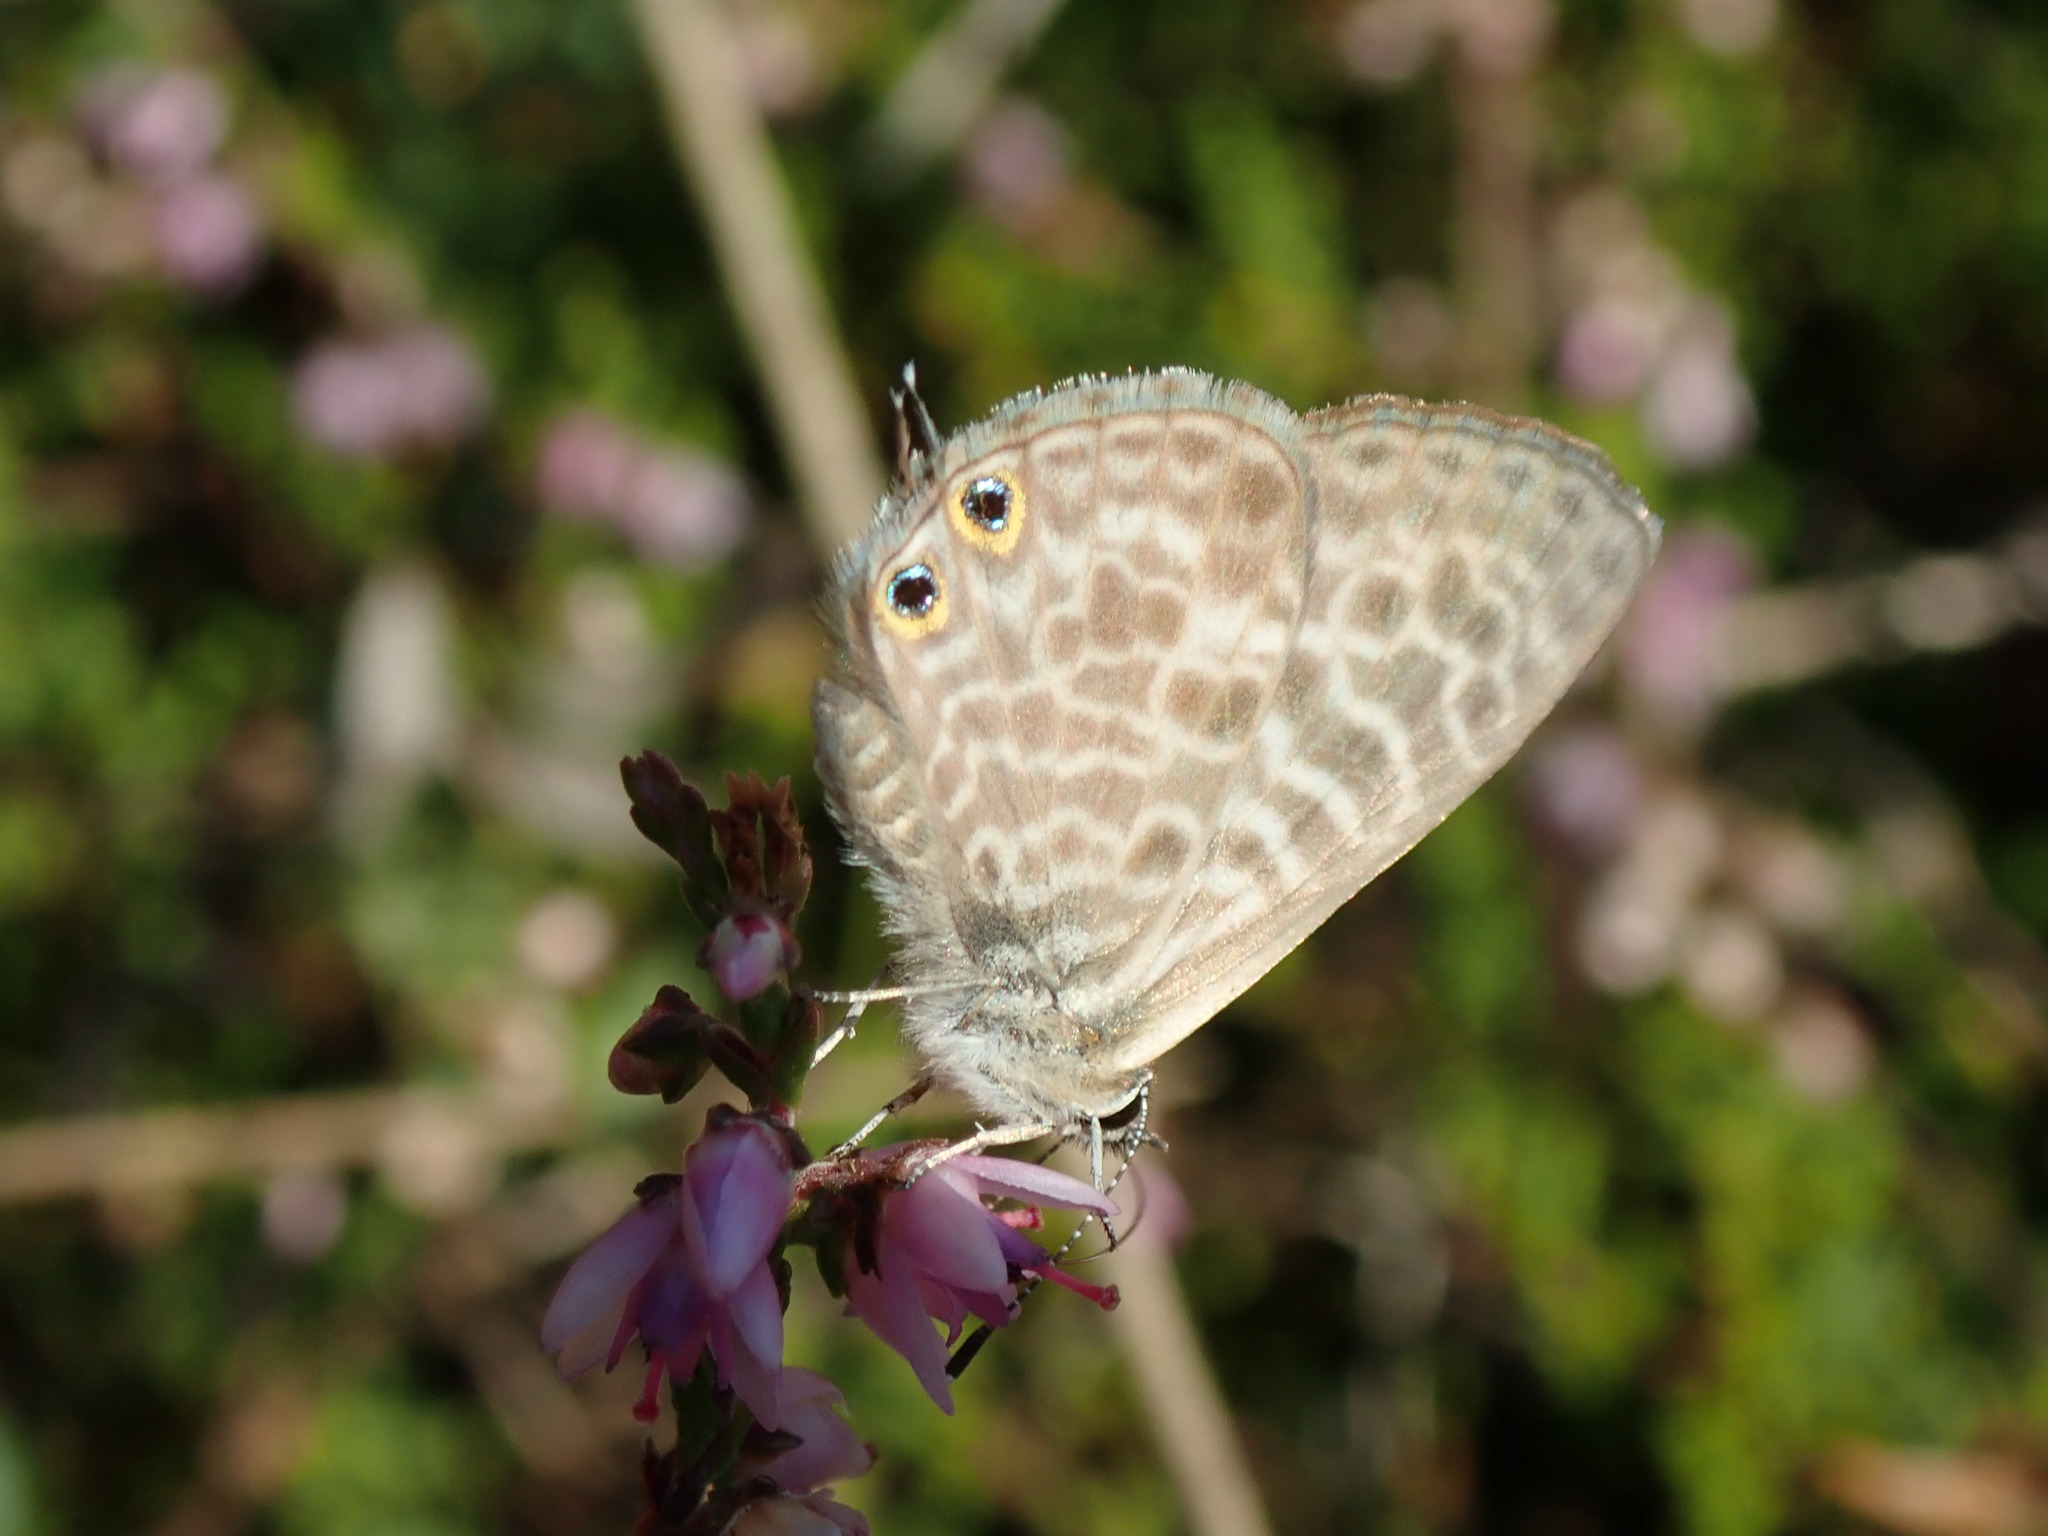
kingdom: Animalia
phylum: Arthropoda
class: Insecta
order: Lepidoptera
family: Lycaenidae
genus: Leptotes
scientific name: Leptotes pirithous
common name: Lang's short-tailed blue
